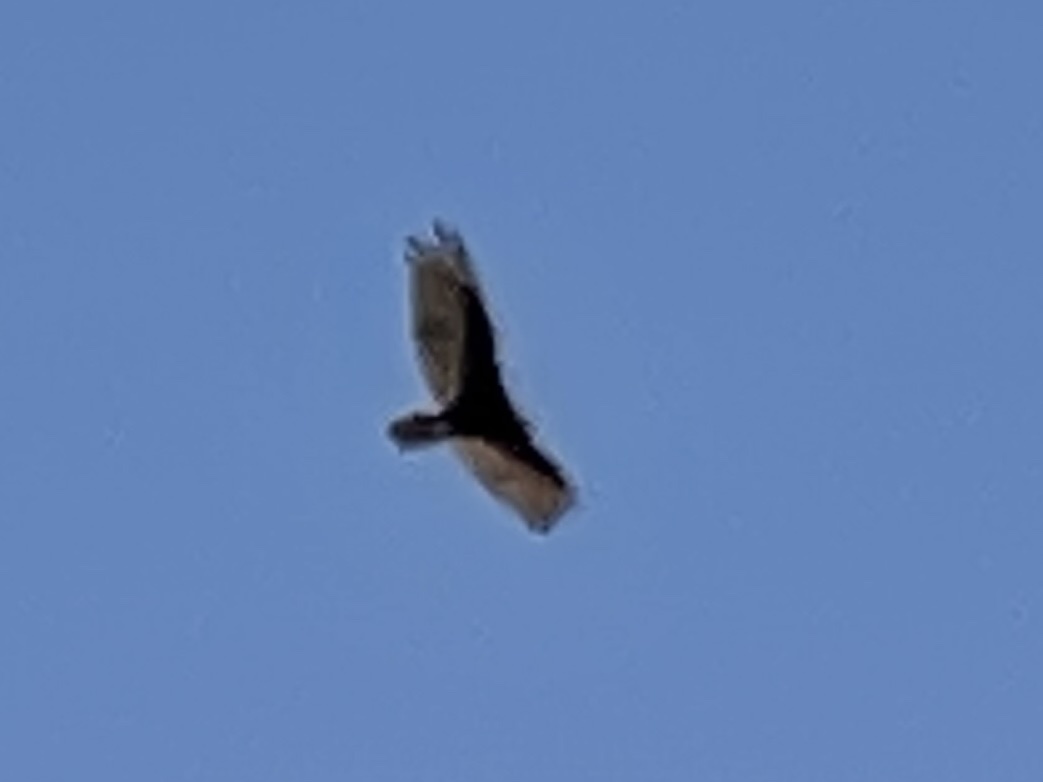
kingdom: Animalia
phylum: Chordata
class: Aves
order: Accipitriformes
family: Cathartidae
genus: Cathartes
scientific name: Cathartes aura
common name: Turkey vulture
